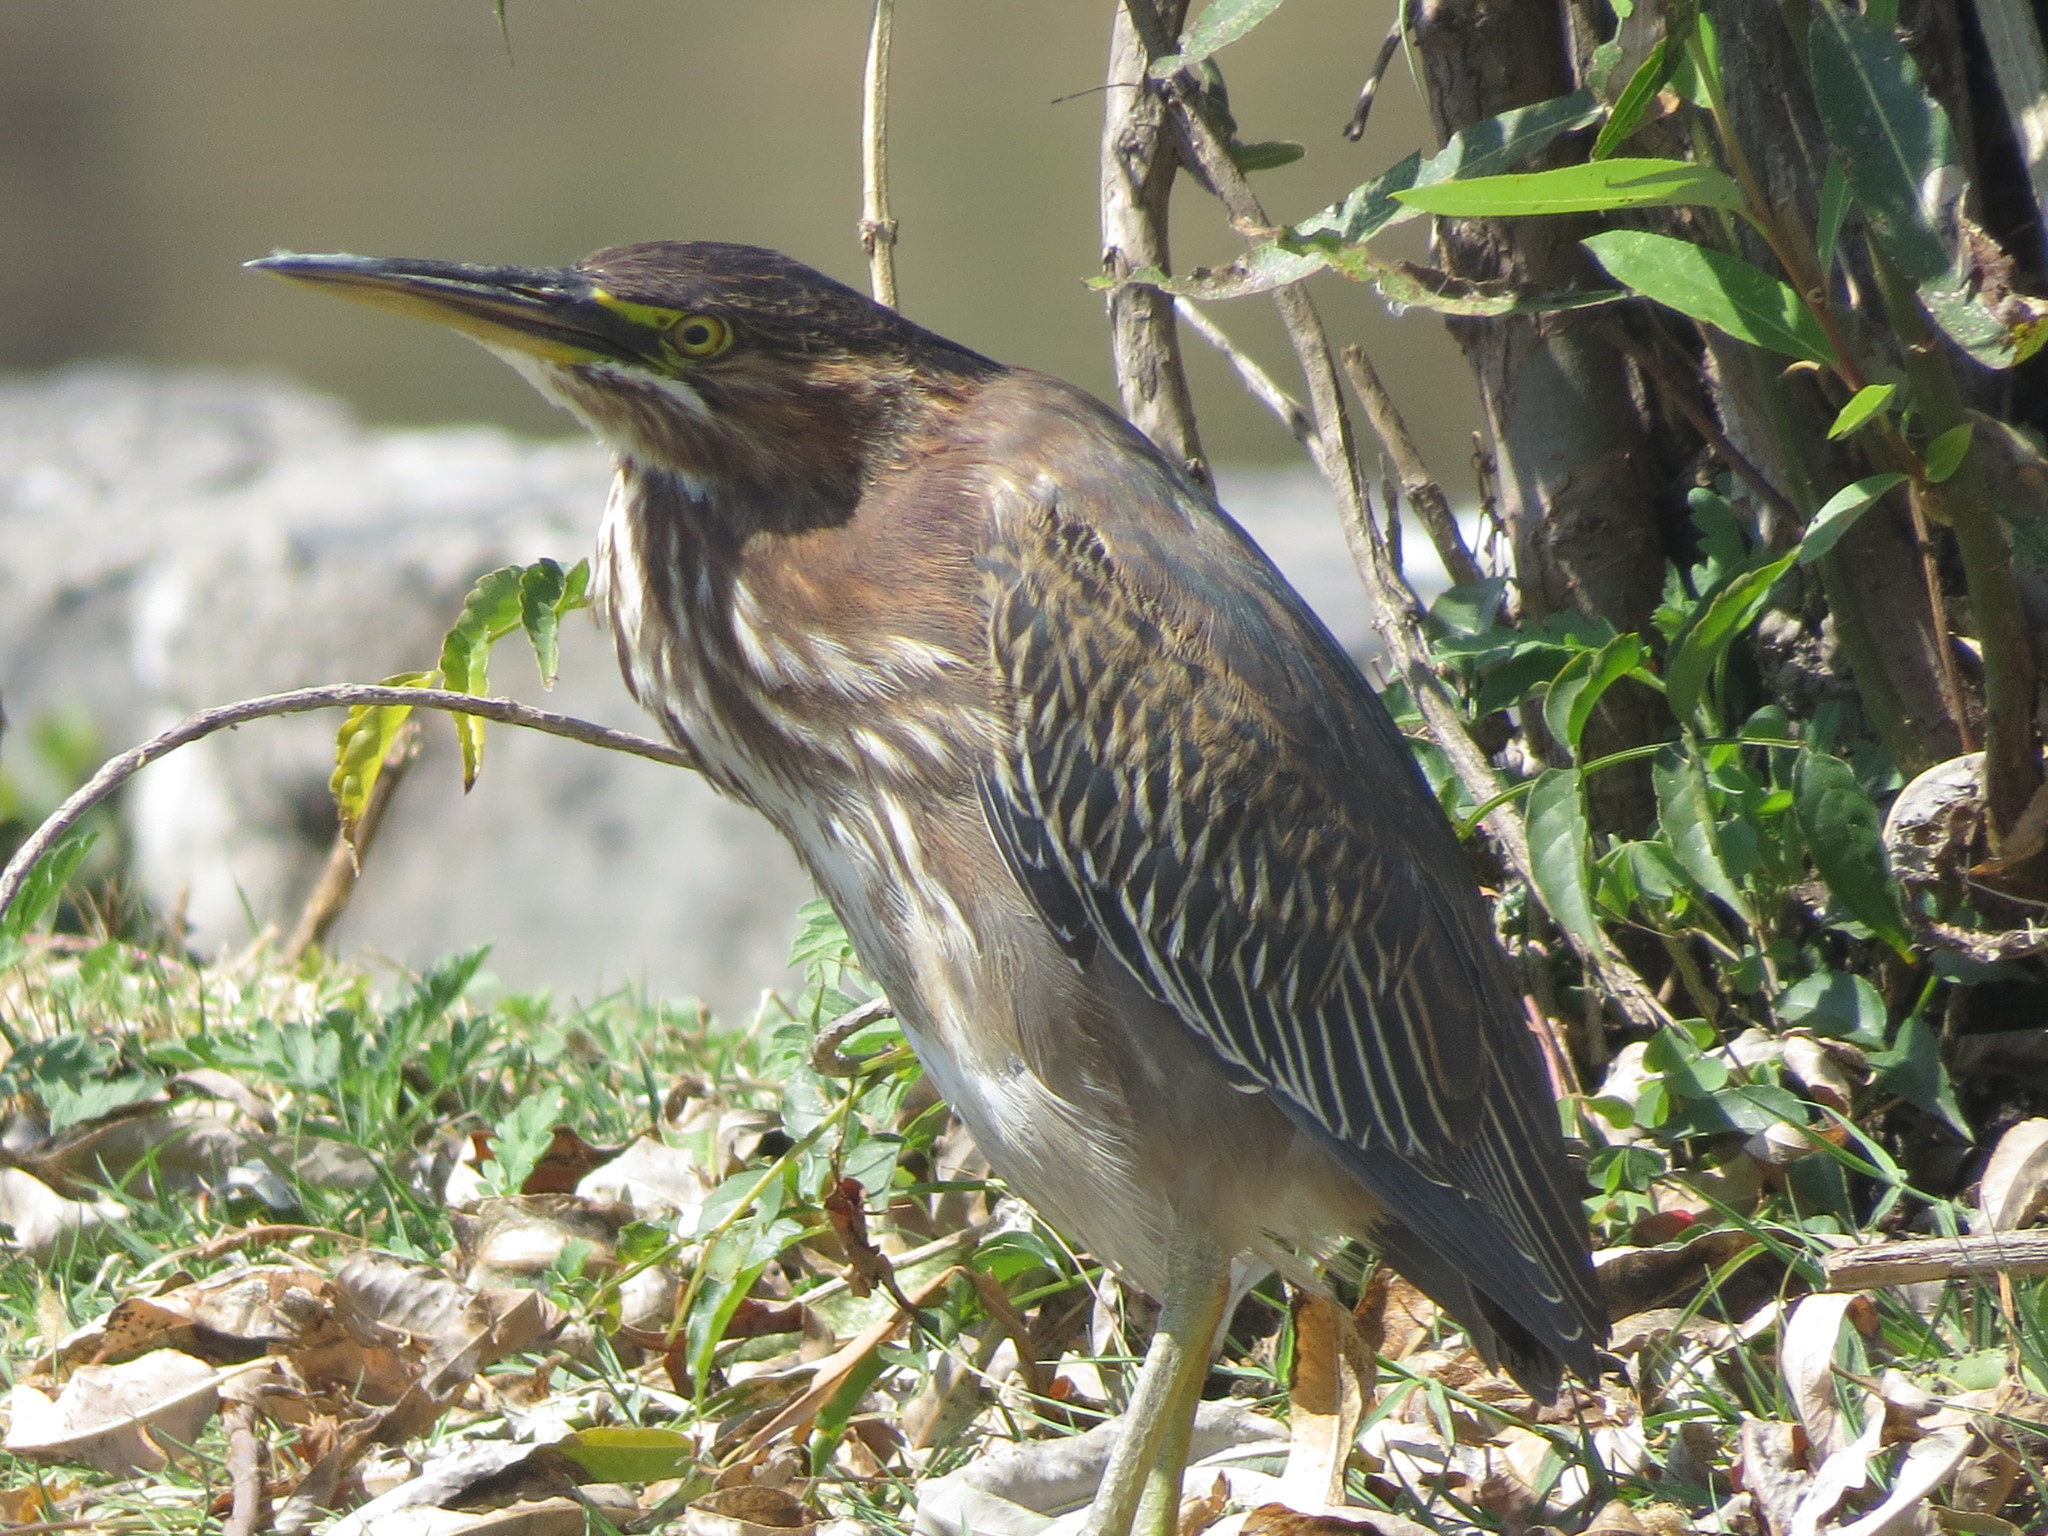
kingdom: Animalia
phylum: Chordata
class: Aves
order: Pelecaniformes
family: Ardeidae
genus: Butorides
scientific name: Butorides virescens
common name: Green heron
